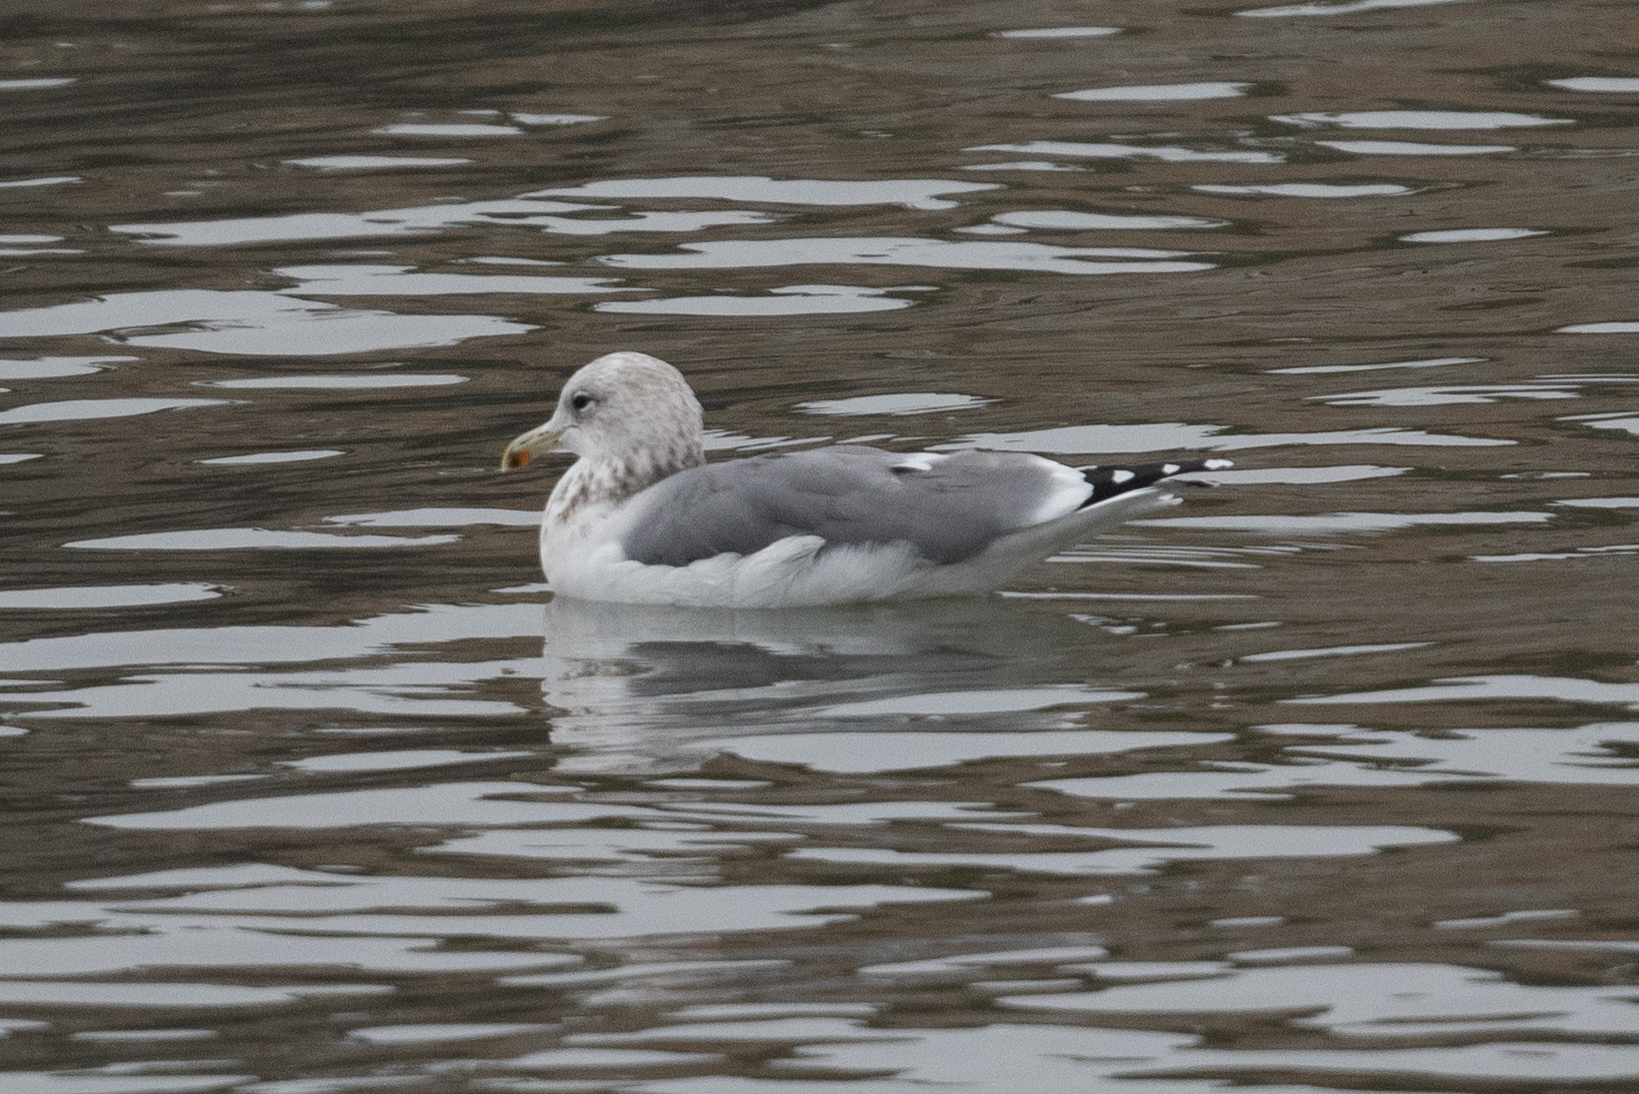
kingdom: Animalia
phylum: Chordata
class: Aves
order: Charadriiformes
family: Laridae
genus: Larus
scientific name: Larus californicus
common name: California gull
